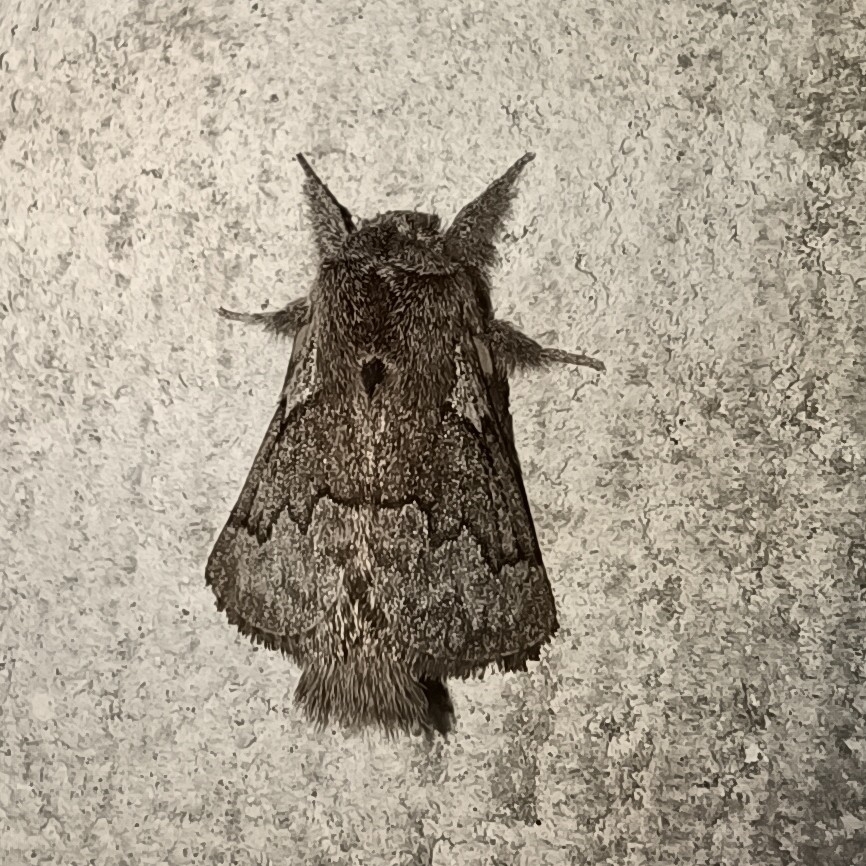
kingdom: Animalia
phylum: Arthropoda
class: Insecta
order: Lepidoptera
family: Lasiocampidae
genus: Trichiura
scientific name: Trichiura crataegi
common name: Pale eggar
